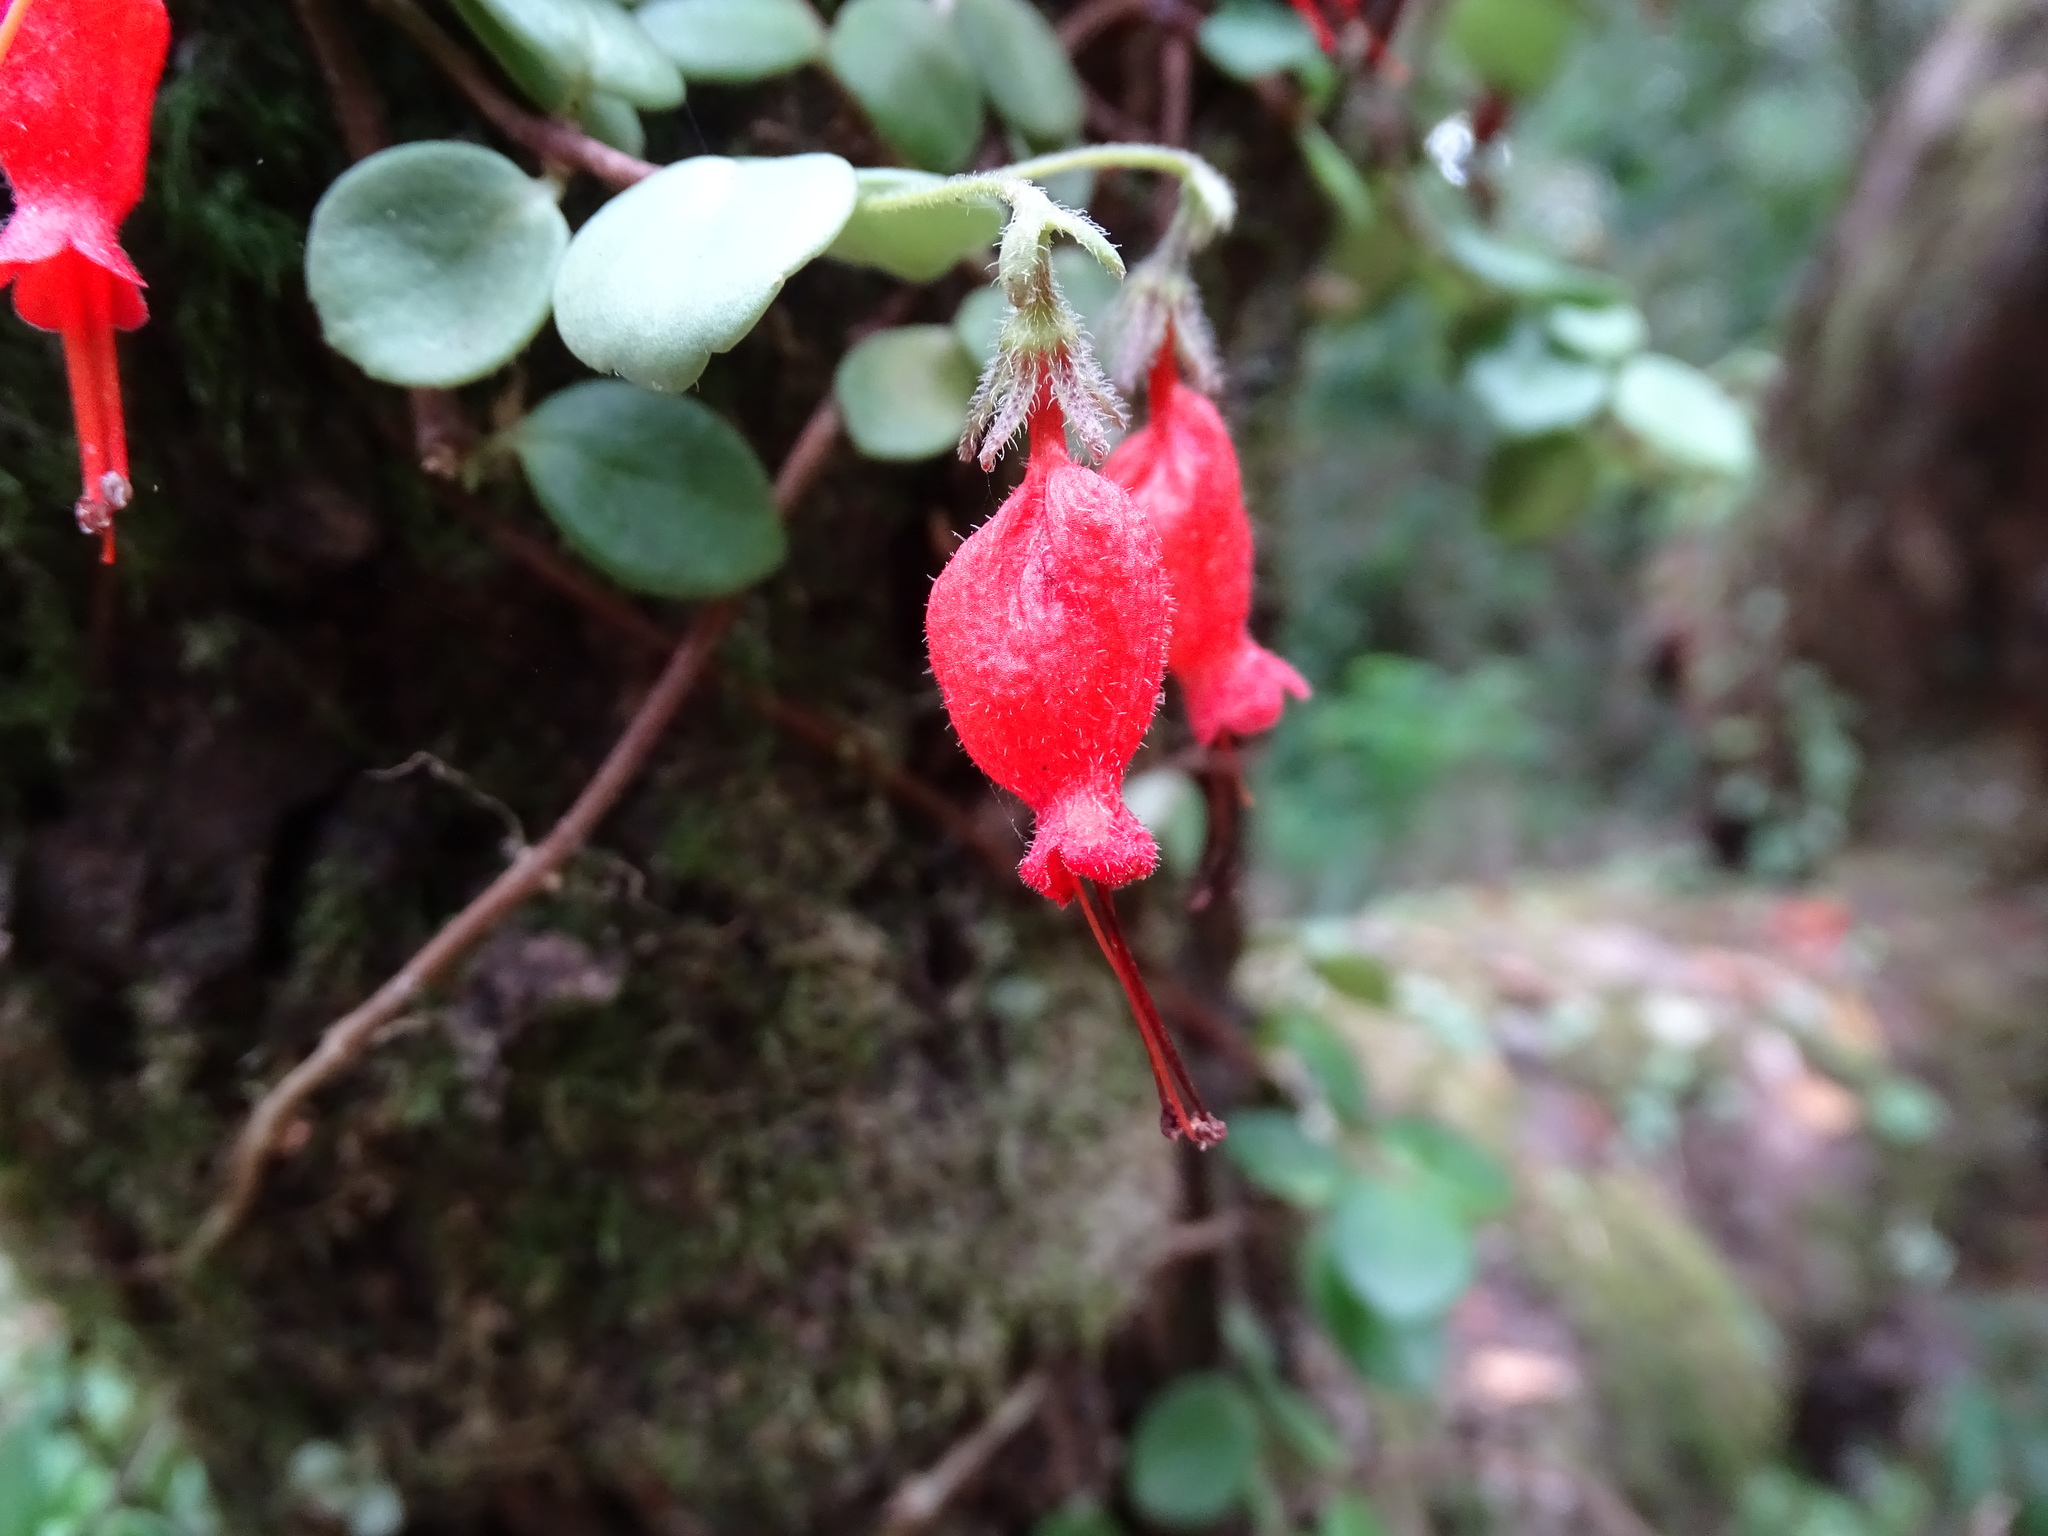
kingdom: Plantae
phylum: Tracheophyta
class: Magnoliopsida
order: Lamiales
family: Gesneriaceae
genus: Sarmienta
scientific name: Sarmienta scandens
